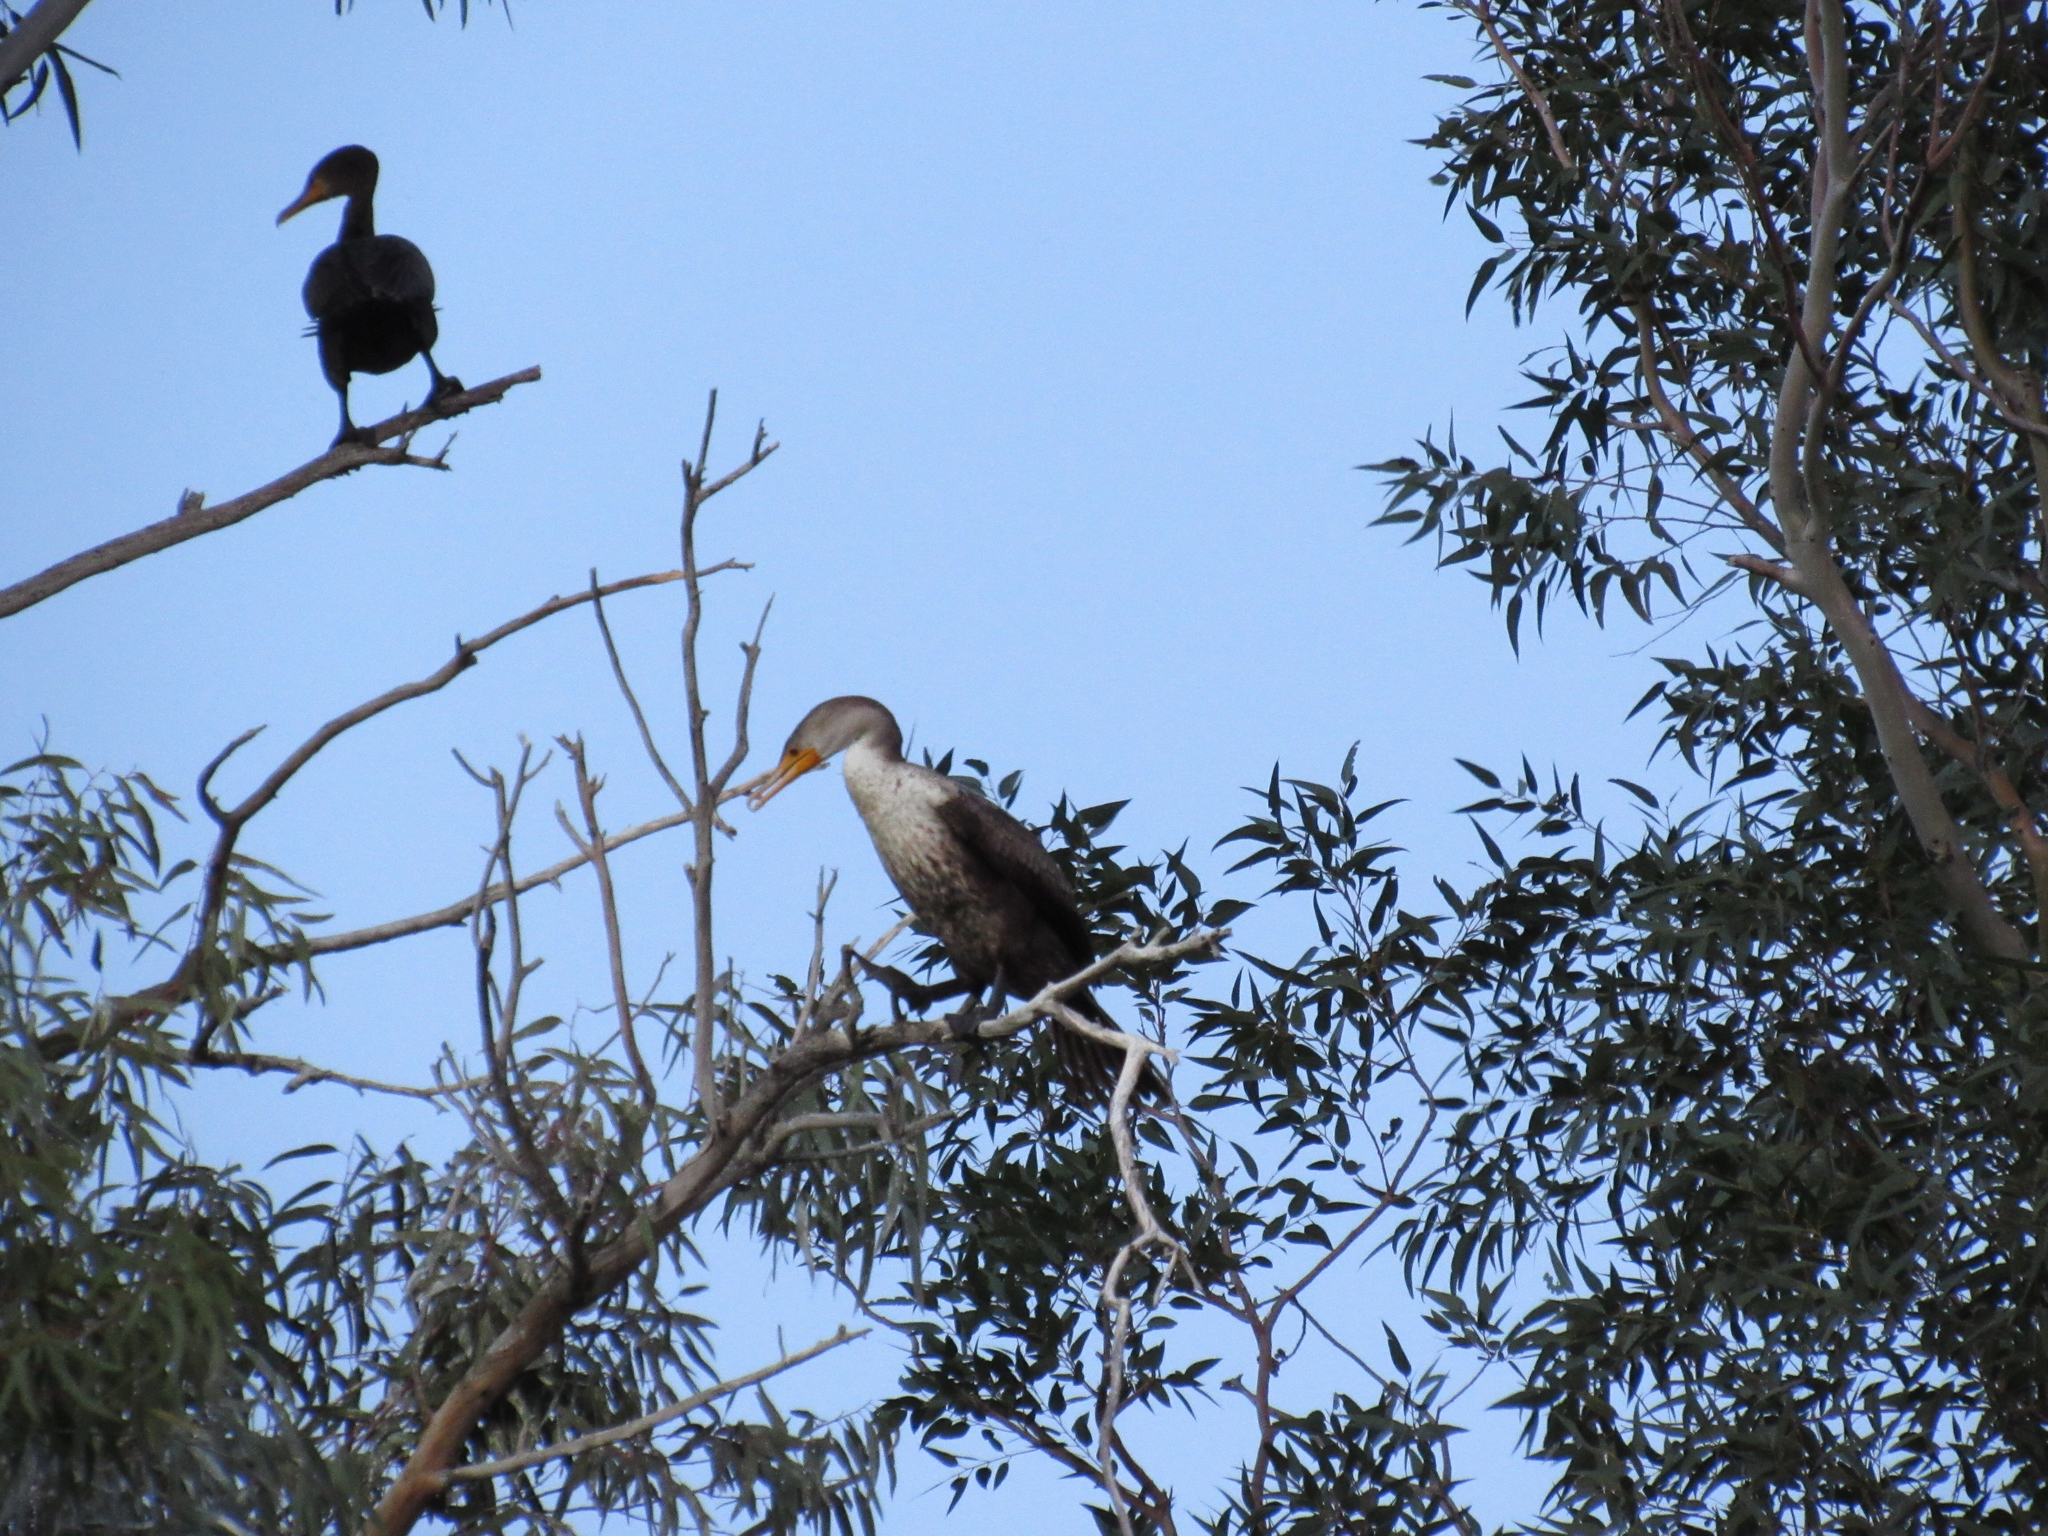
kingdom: Animalia
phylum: Chordata
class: Aves
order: Suliformes
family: Phalacrocoracidae
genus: Phalacrocorax
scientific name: Phalacrocorax auritus
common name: Double-crested cormorant
